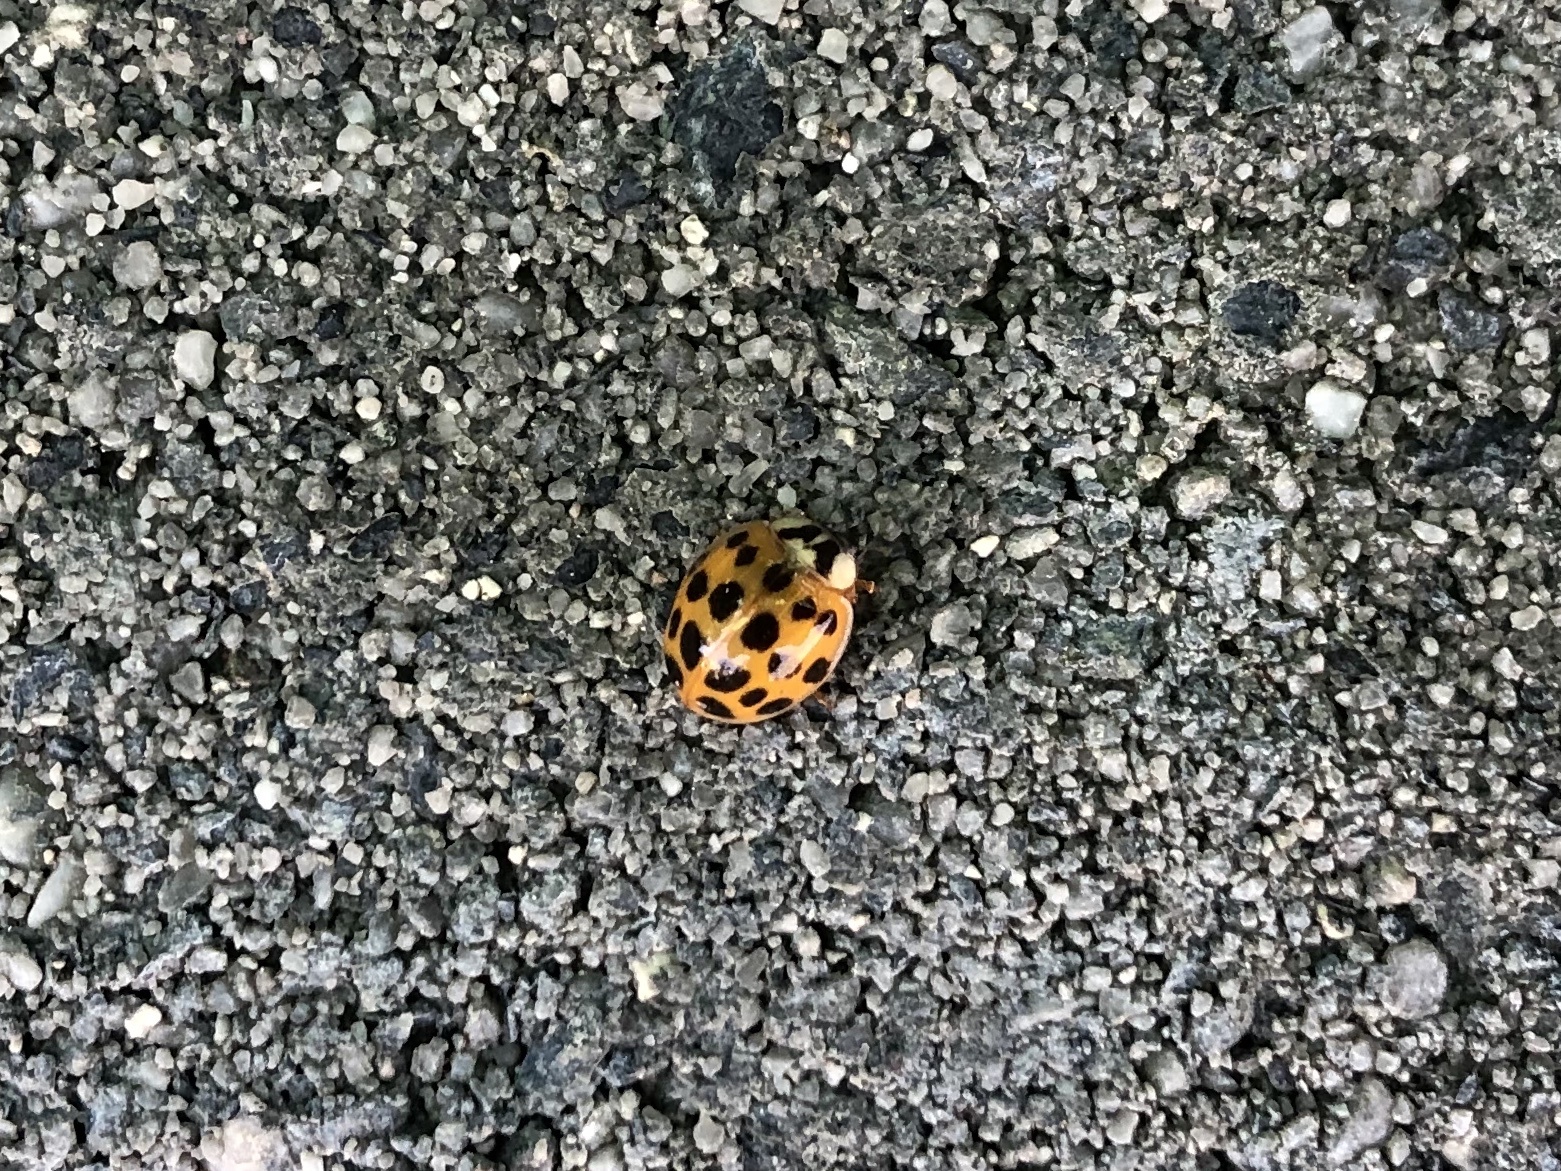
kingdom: Animalia
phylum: Arthropoda
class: Insecta
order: Coleoptera
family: Coccinellidae
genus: Harmonia
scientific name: Harmonia axyridis
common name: Harlequin ladybird
